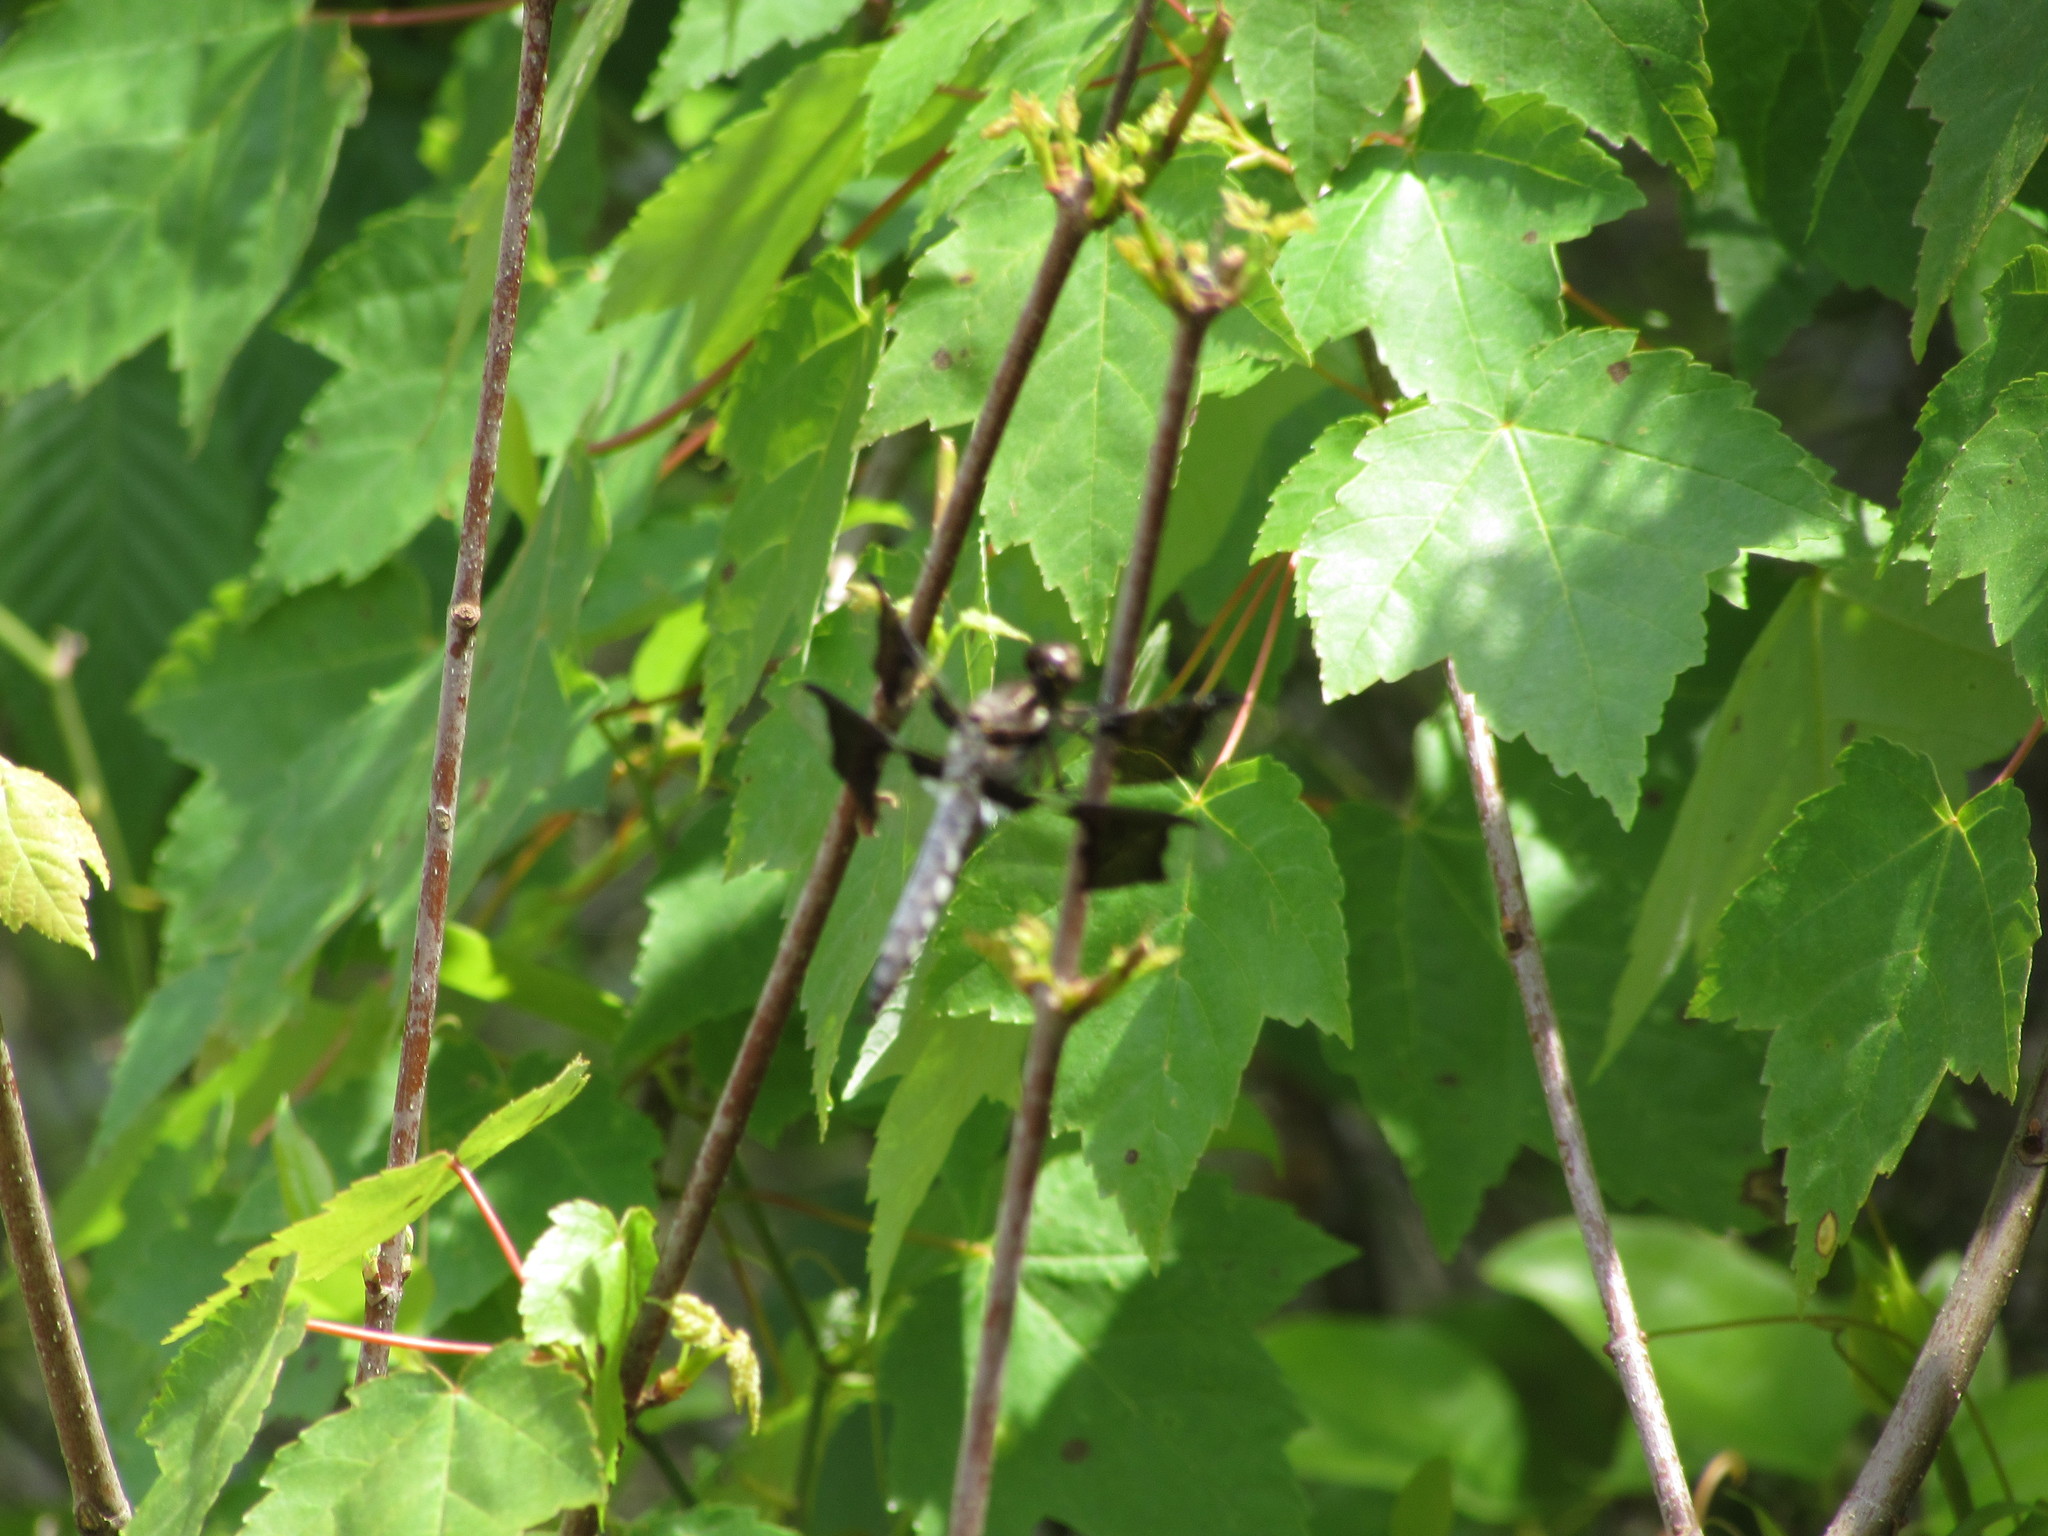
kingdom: Animalia
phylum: Arthropoda
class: Insecta
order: Odonata
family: Libellulidae
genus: Plathemis
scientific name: Plathemis lydia
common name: Common whitetail
